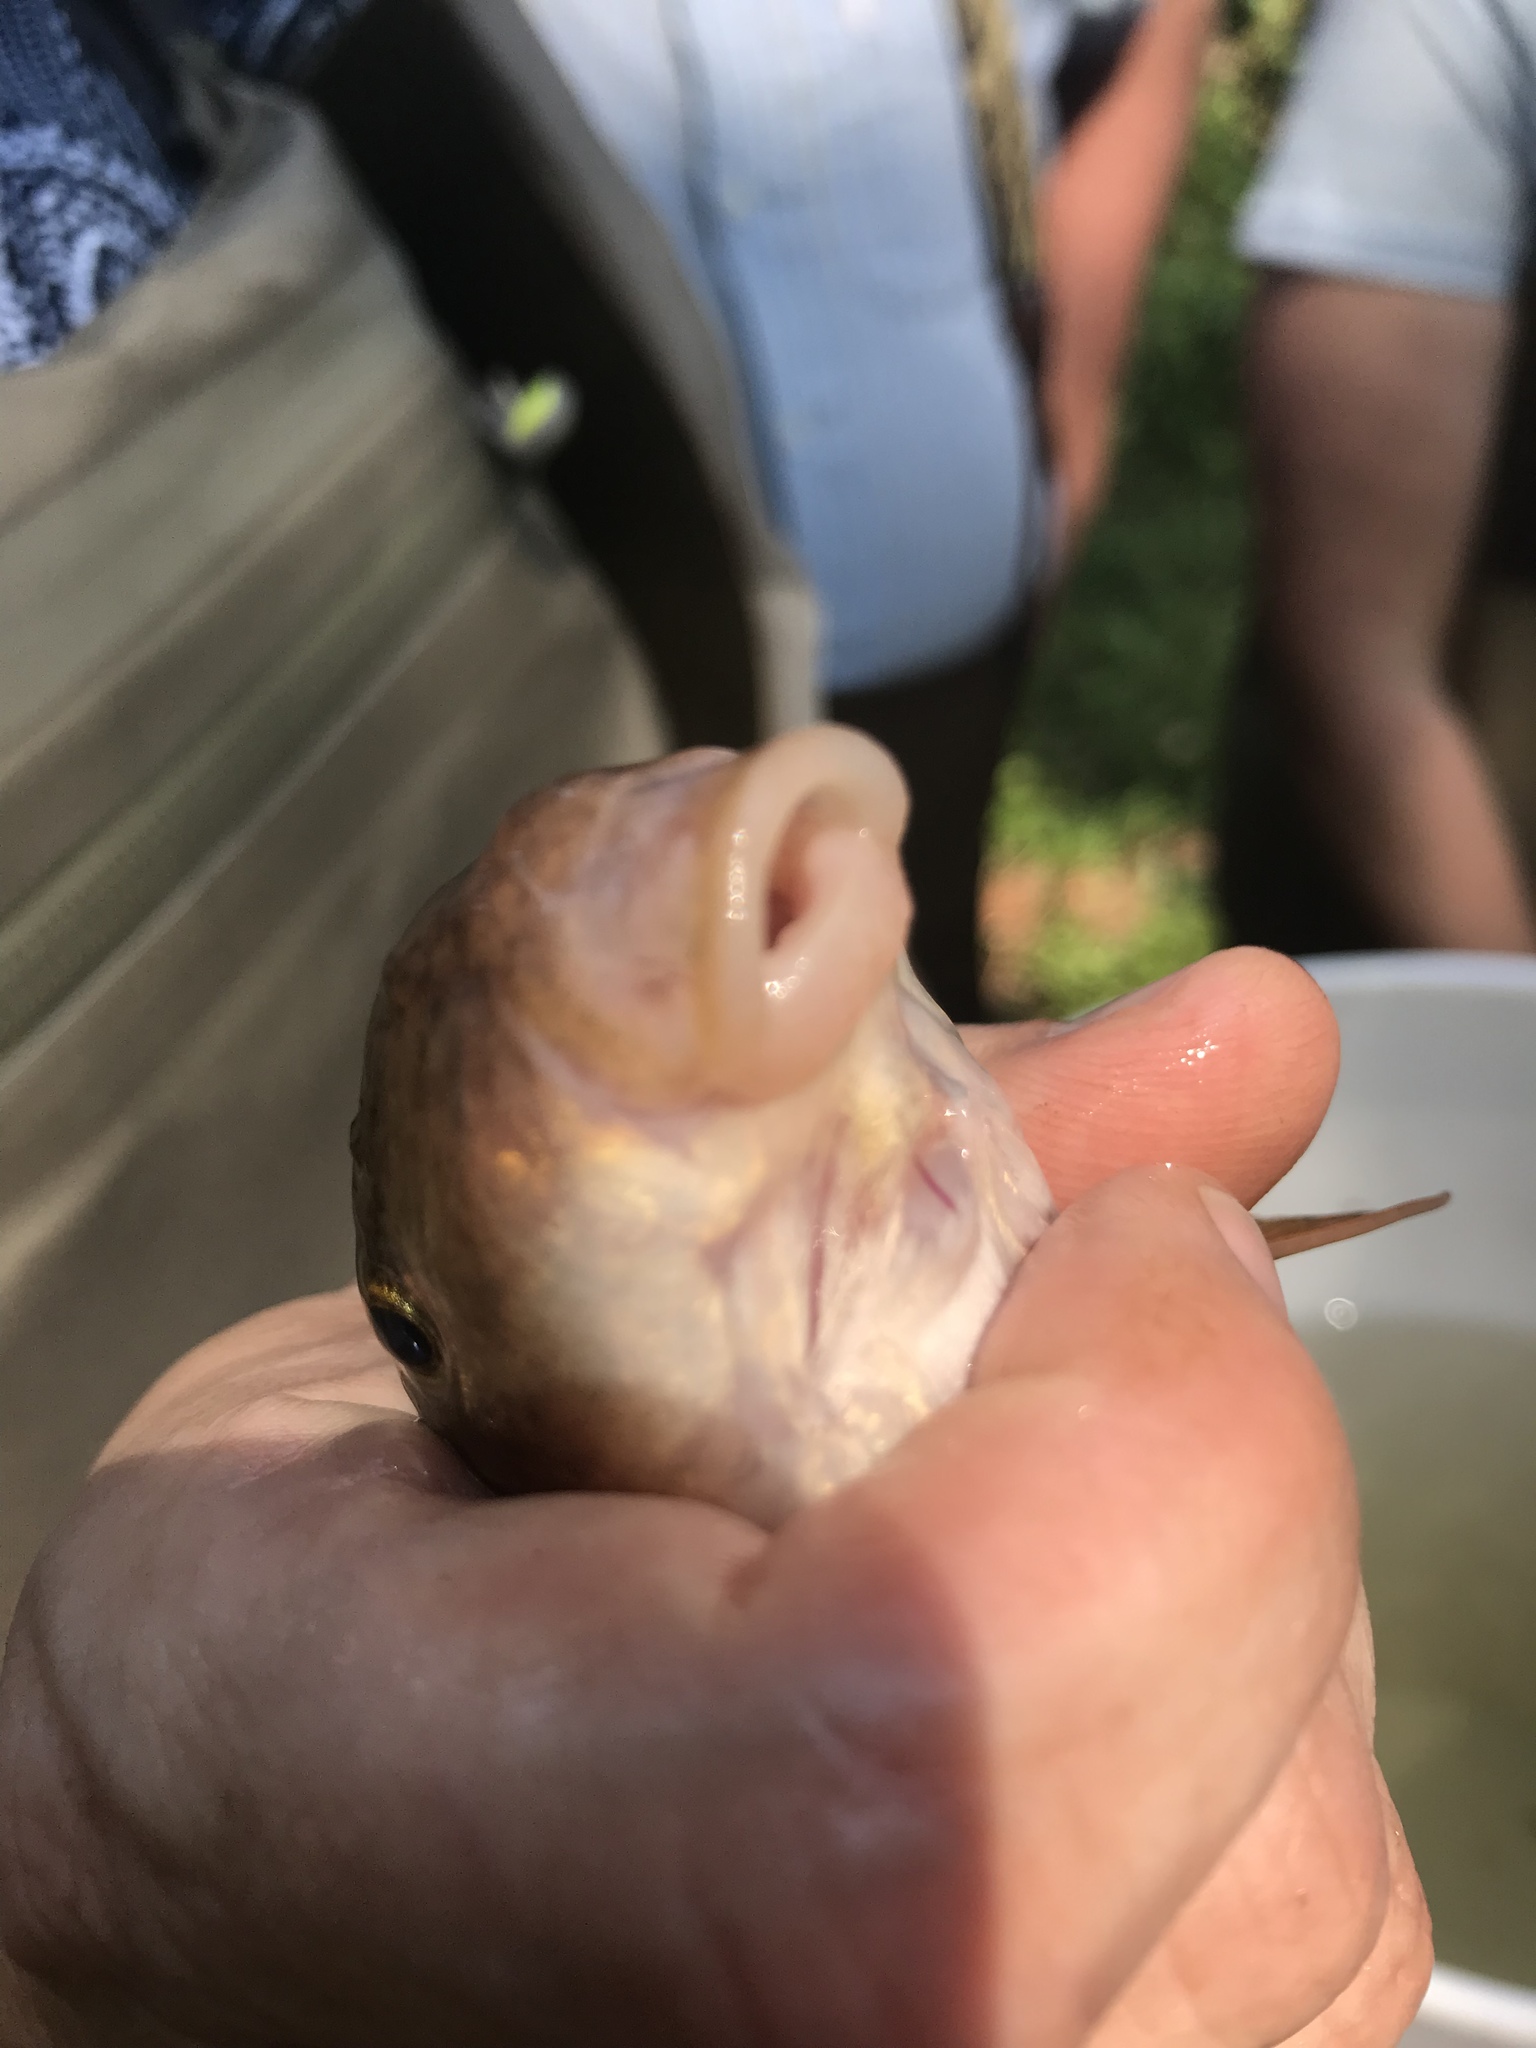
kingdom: Animalia
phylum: Chordata
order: Cypriniformes
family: Catostomidae
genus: Catostomus
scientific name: Catostomus commersonii
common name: White sucker
